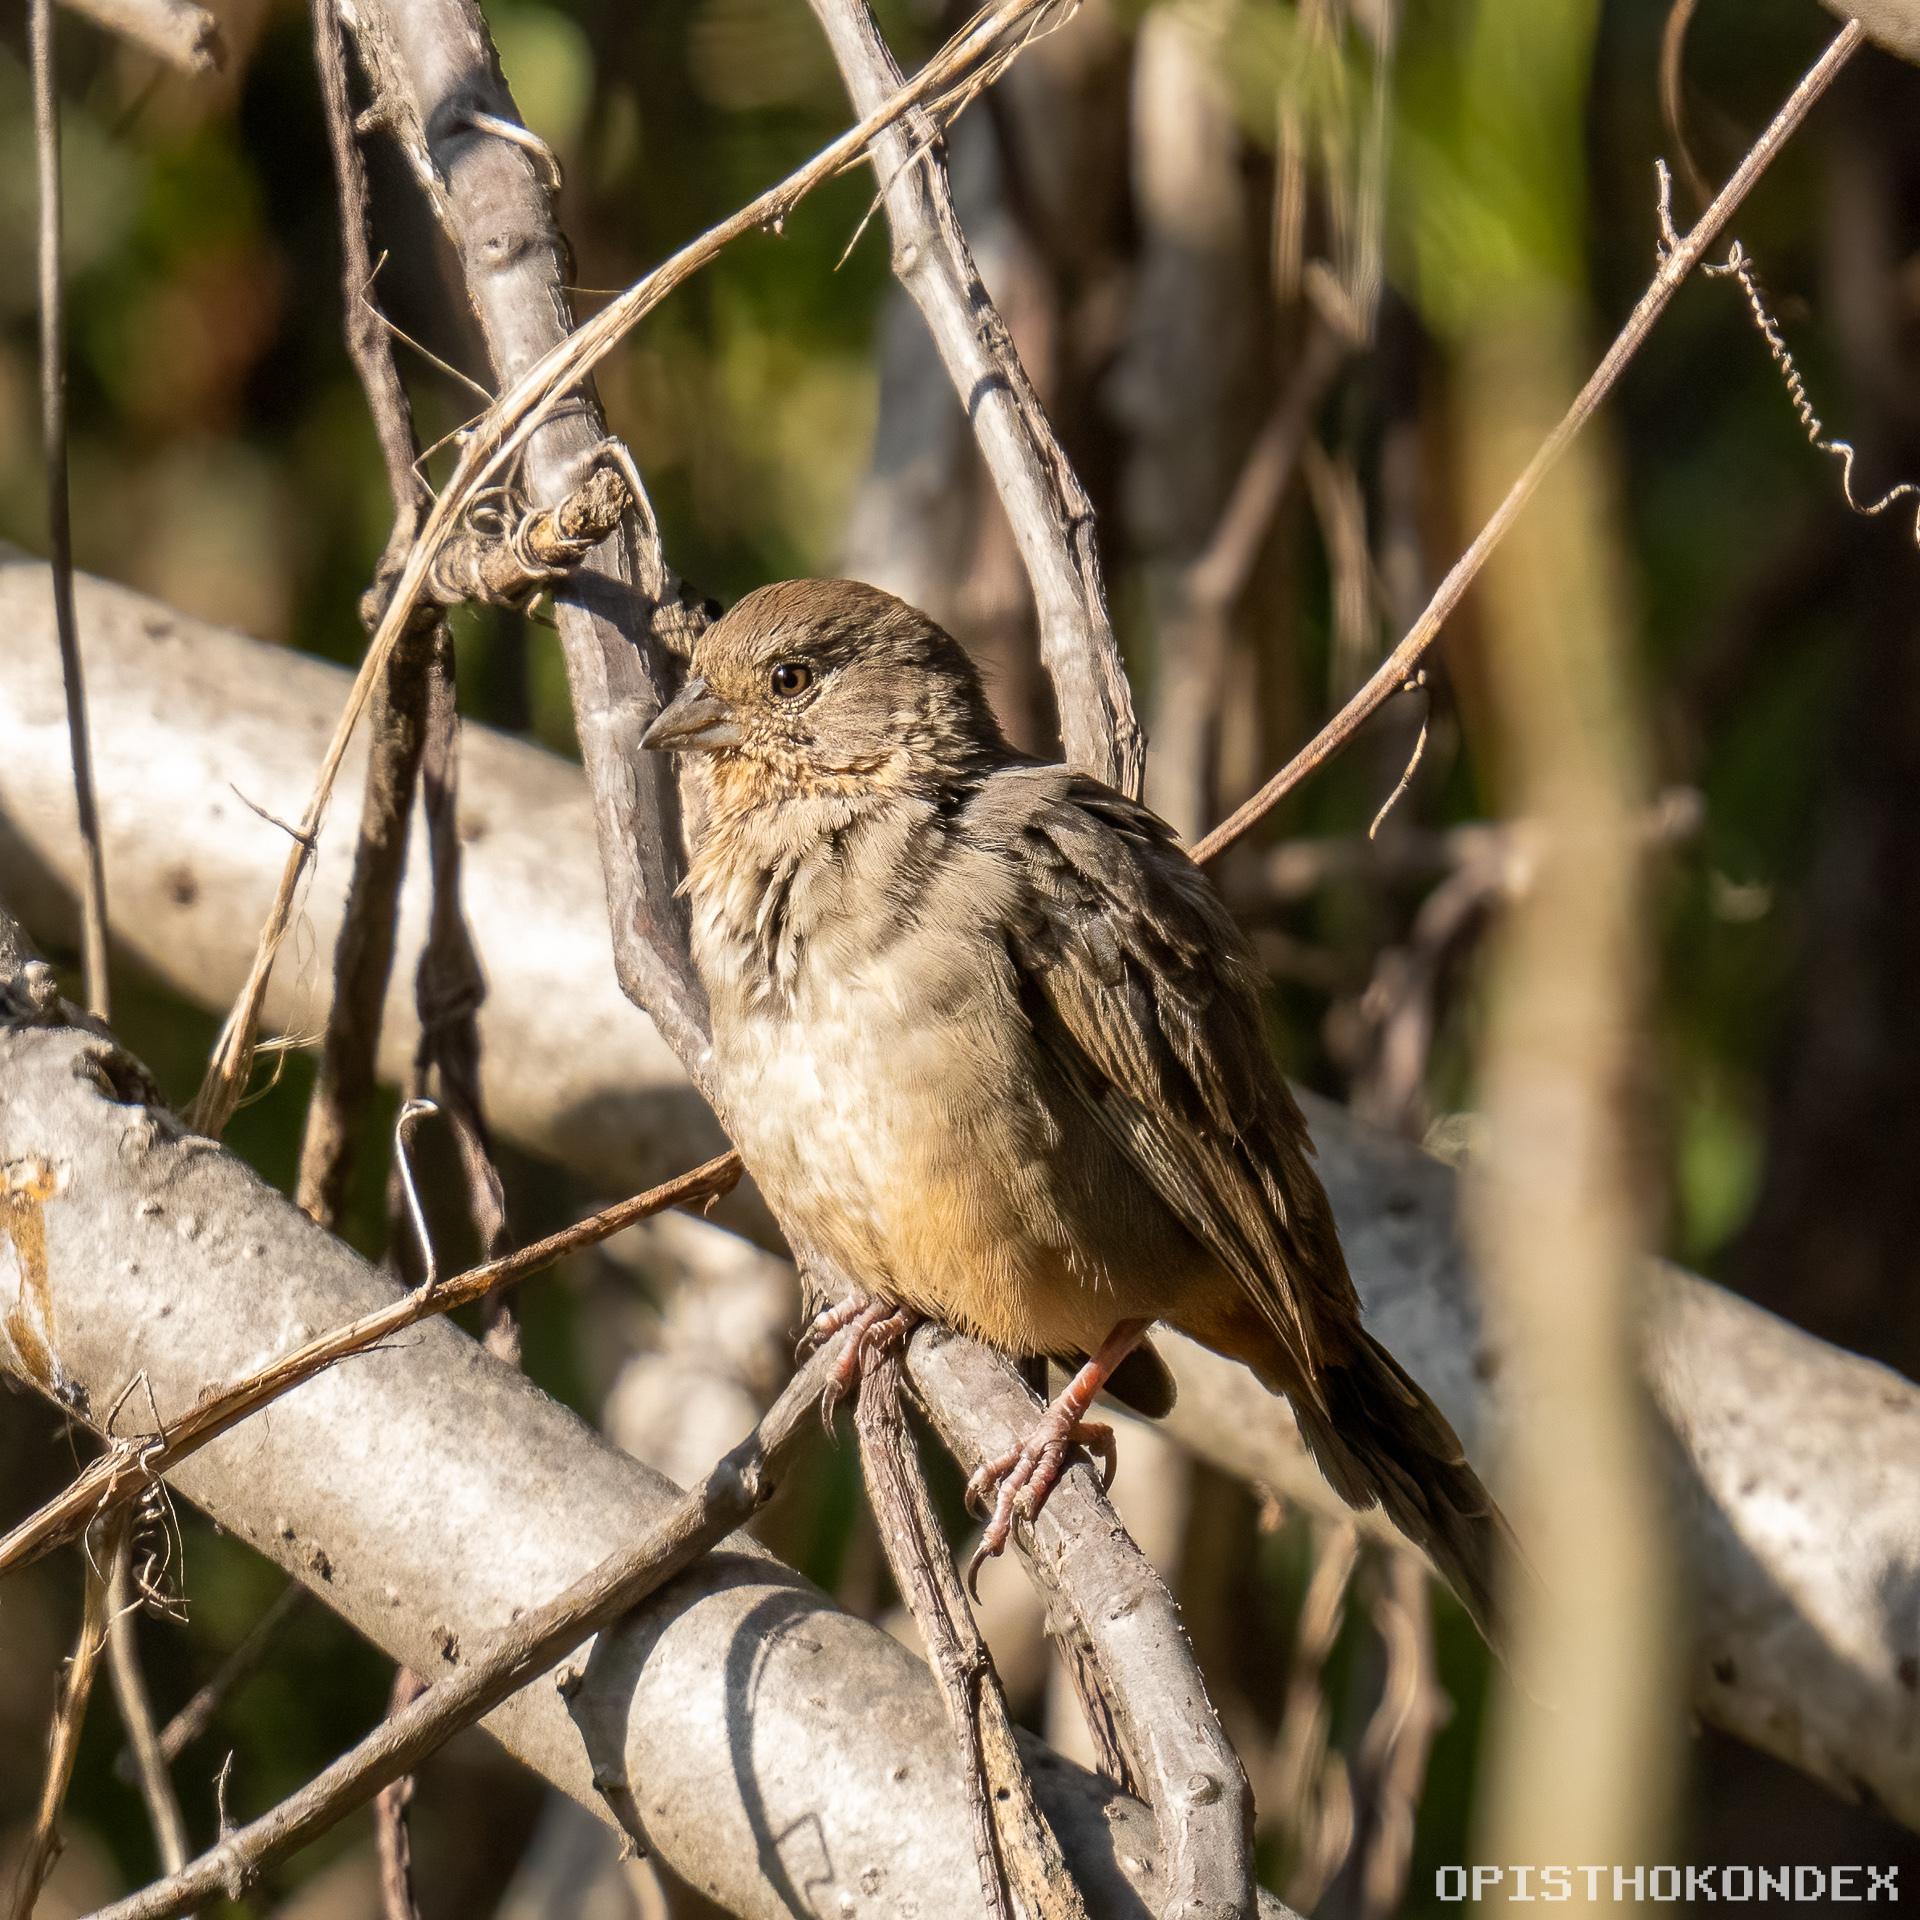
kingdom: Animalia
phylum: Chordata
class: Aves
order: Passeriformes
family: Passerellidae
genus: Melozone
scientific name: Melozone fusca
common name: Canyon towhee
